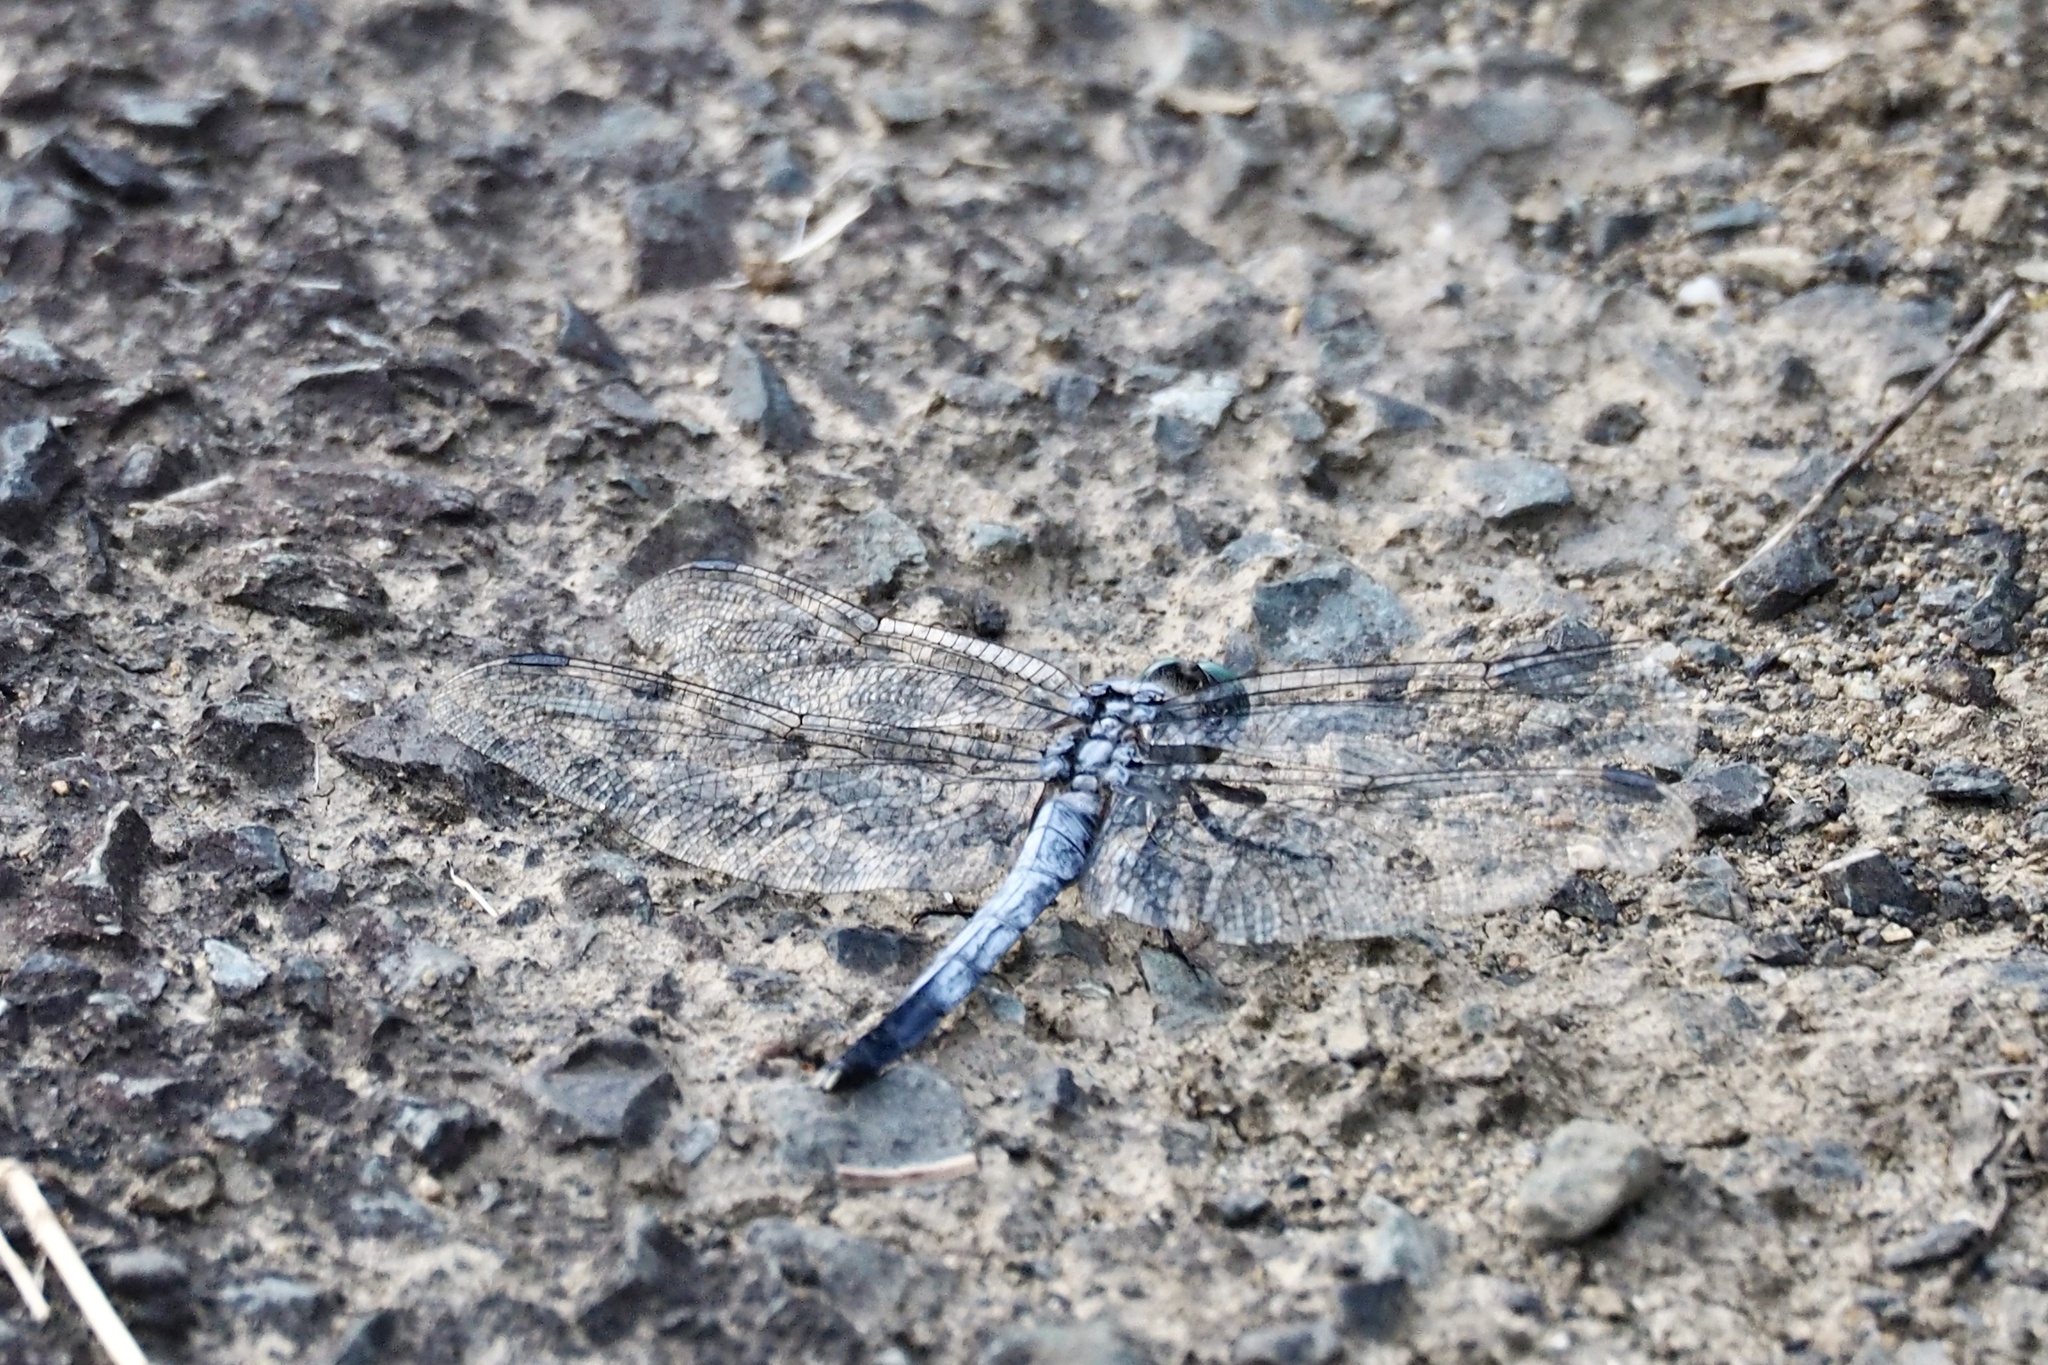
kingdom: Animalia
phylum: Arthropoda
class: Insecta
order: Odonata
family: Libellulidae
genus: Orthetrum
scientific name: Orthetrum albistylum
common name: White-tailed skimmer
